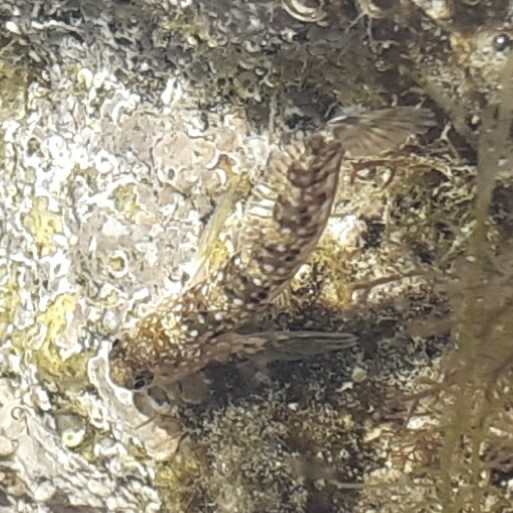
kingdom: Animalia
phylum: Chordata
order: Perciformes
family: Blenniidae
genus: Coryphoblennius
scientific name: Coryphoblennius galerita
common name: Montagu's blenny
